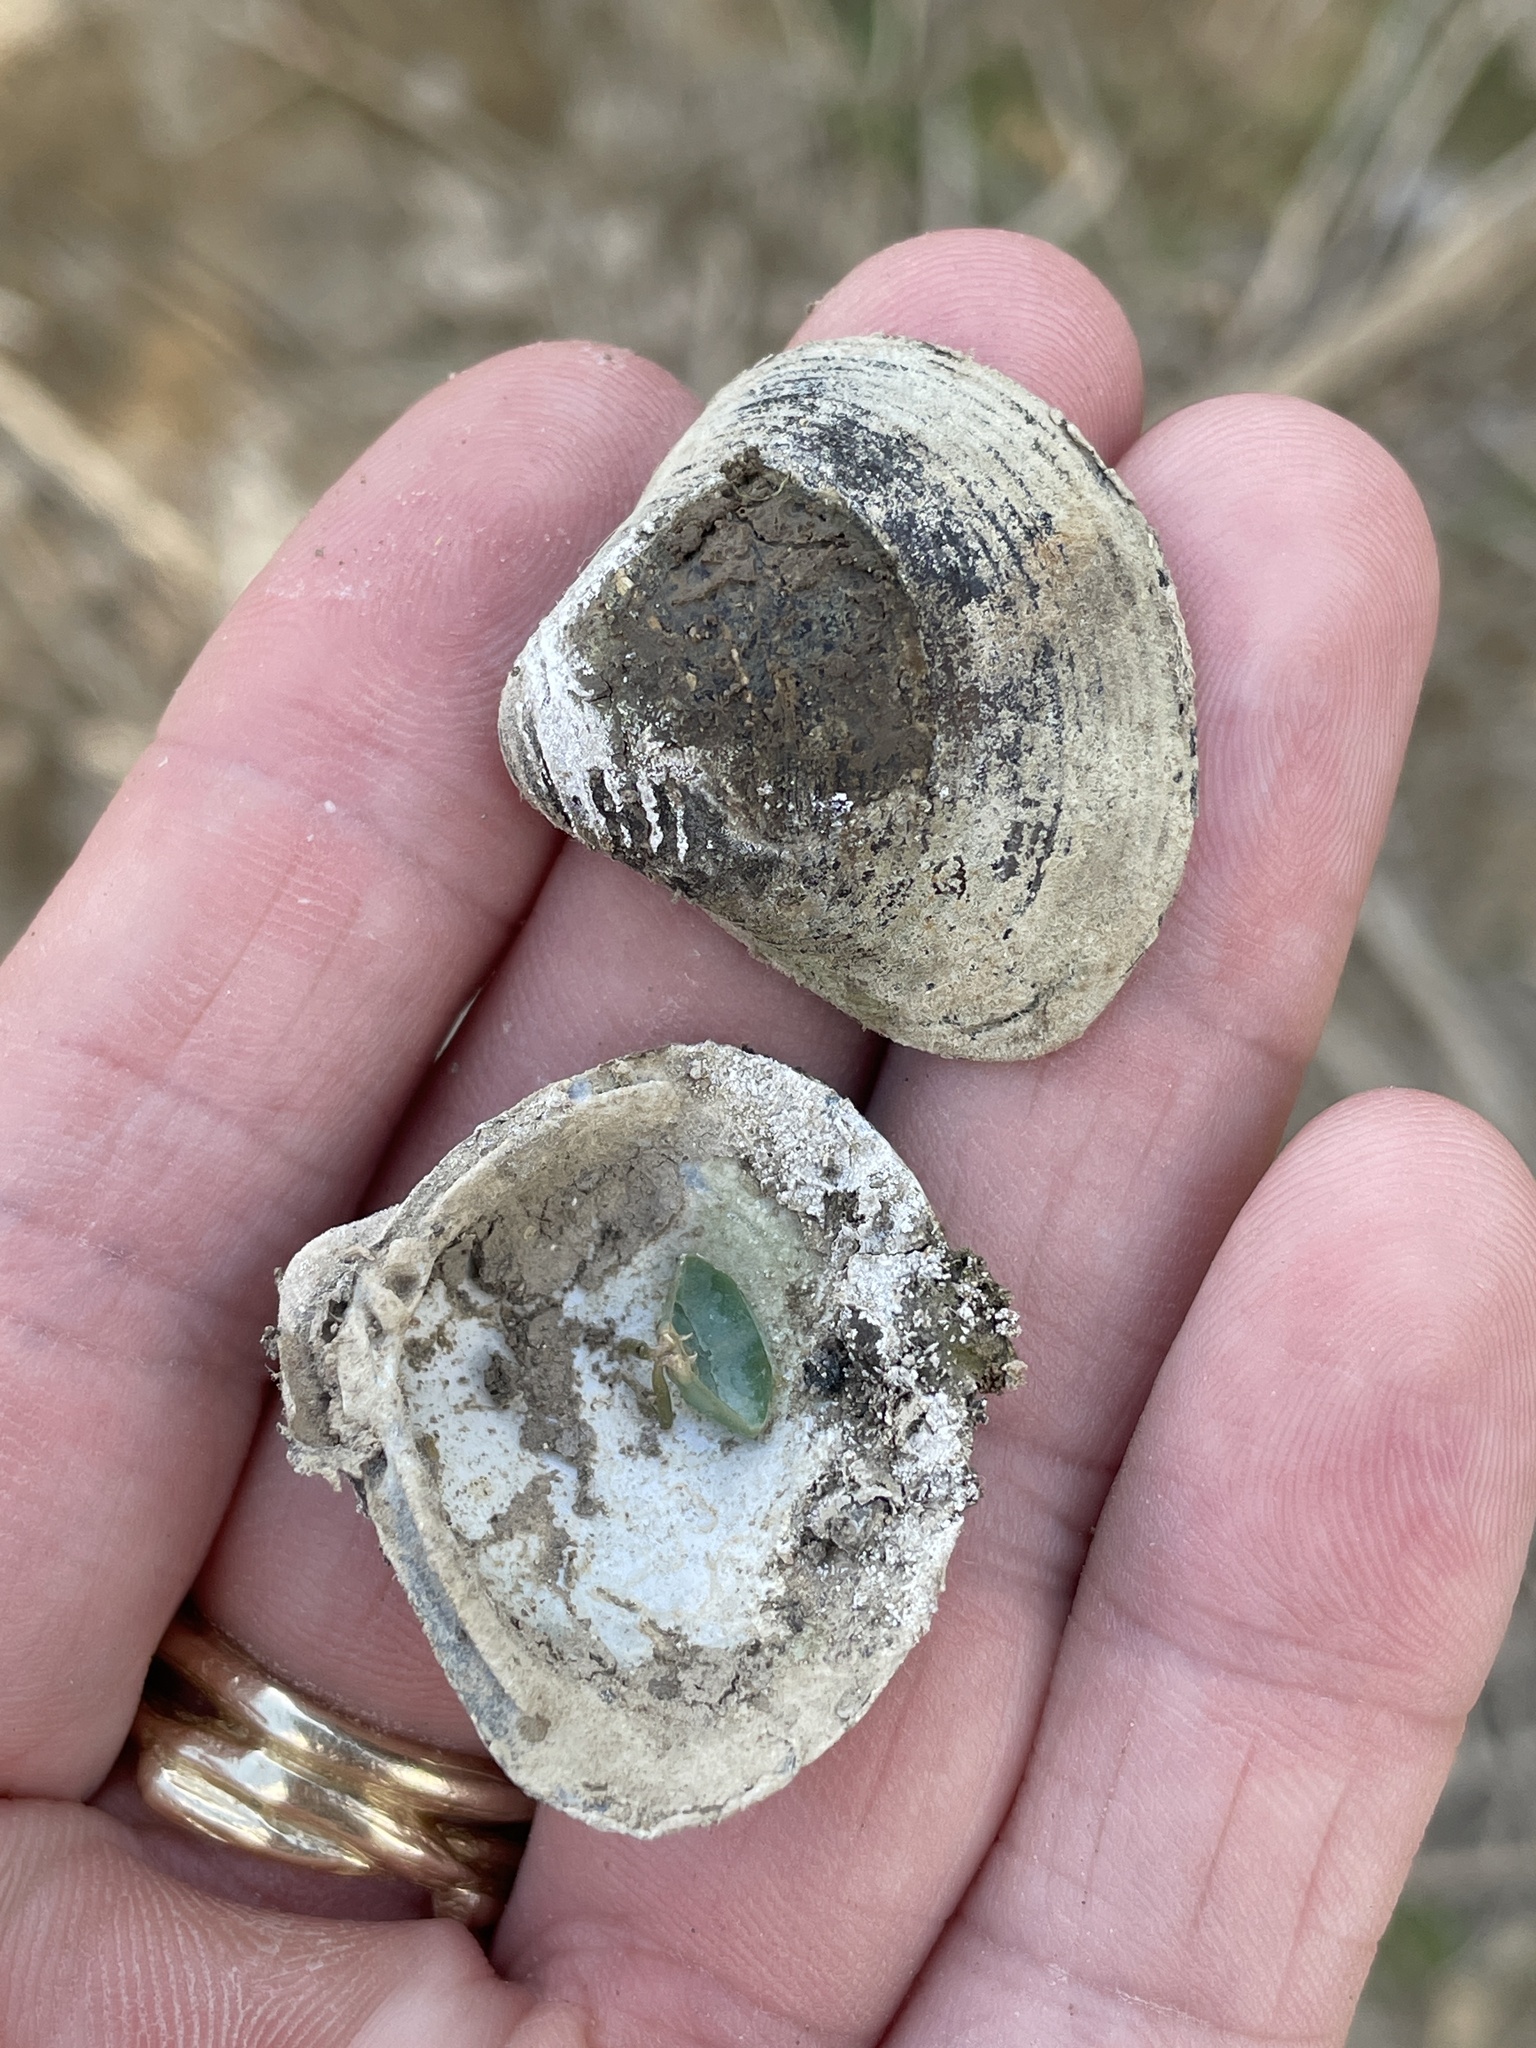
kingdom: Animalia
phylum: Mollusca
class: Bivalvia
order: Venerida
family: Cyrenidae
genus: Corbicula
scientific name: Corbicula fluminea
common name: Asian clam
